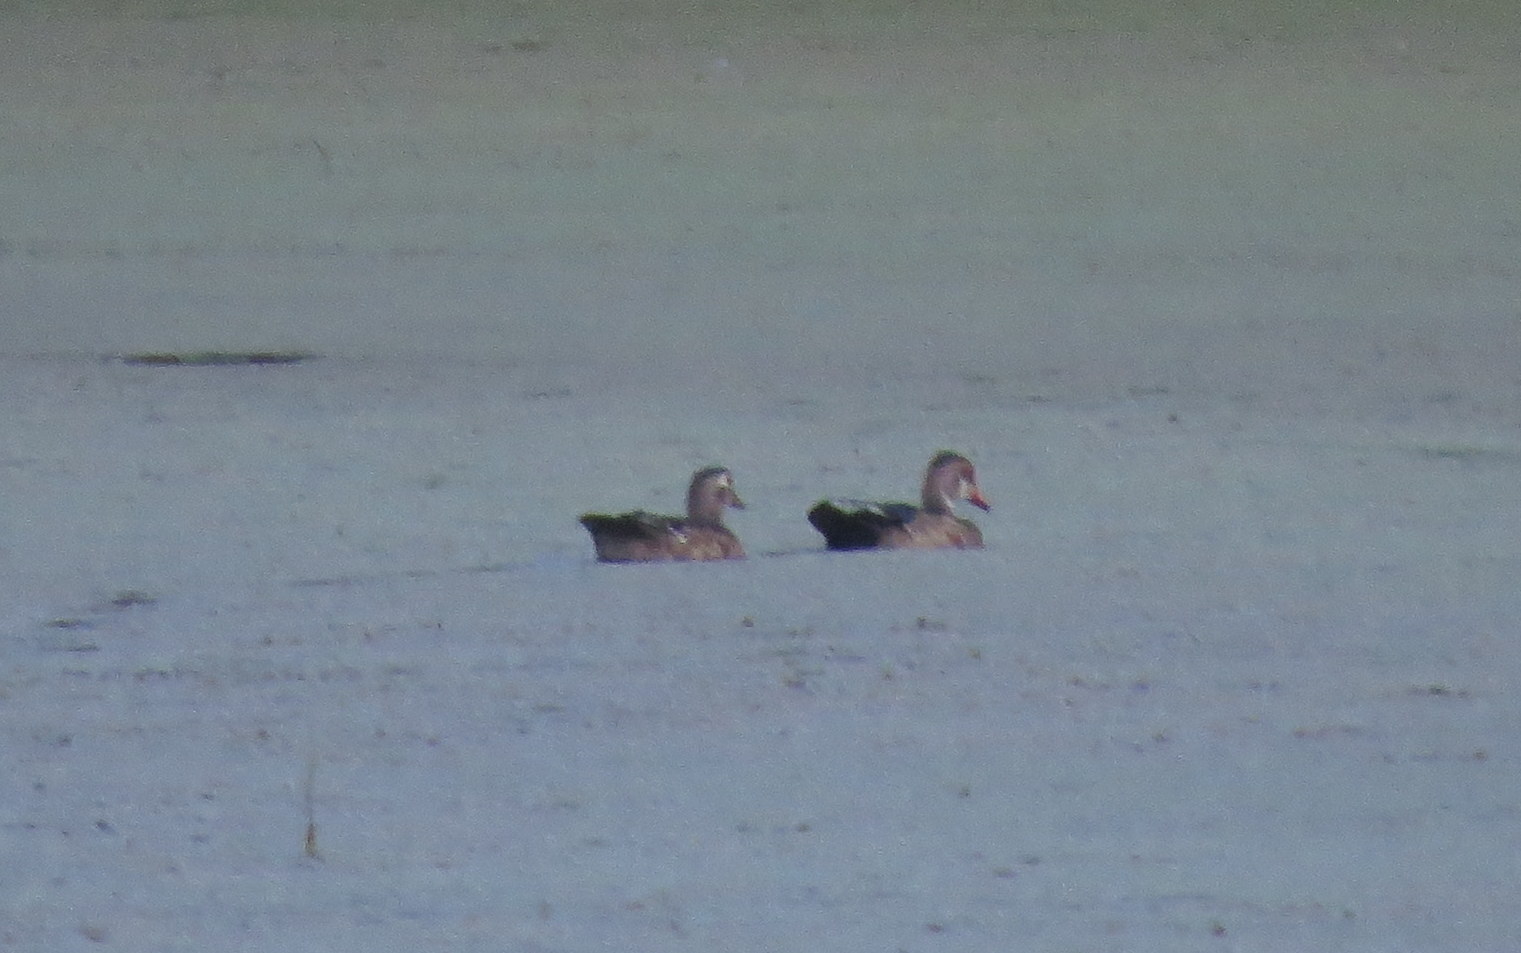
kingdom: Animalia
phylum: Chordata
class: Aves
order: Anseriformes
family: Anatidae
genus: Aix
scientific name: Aix sponsa
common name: Wood duck
